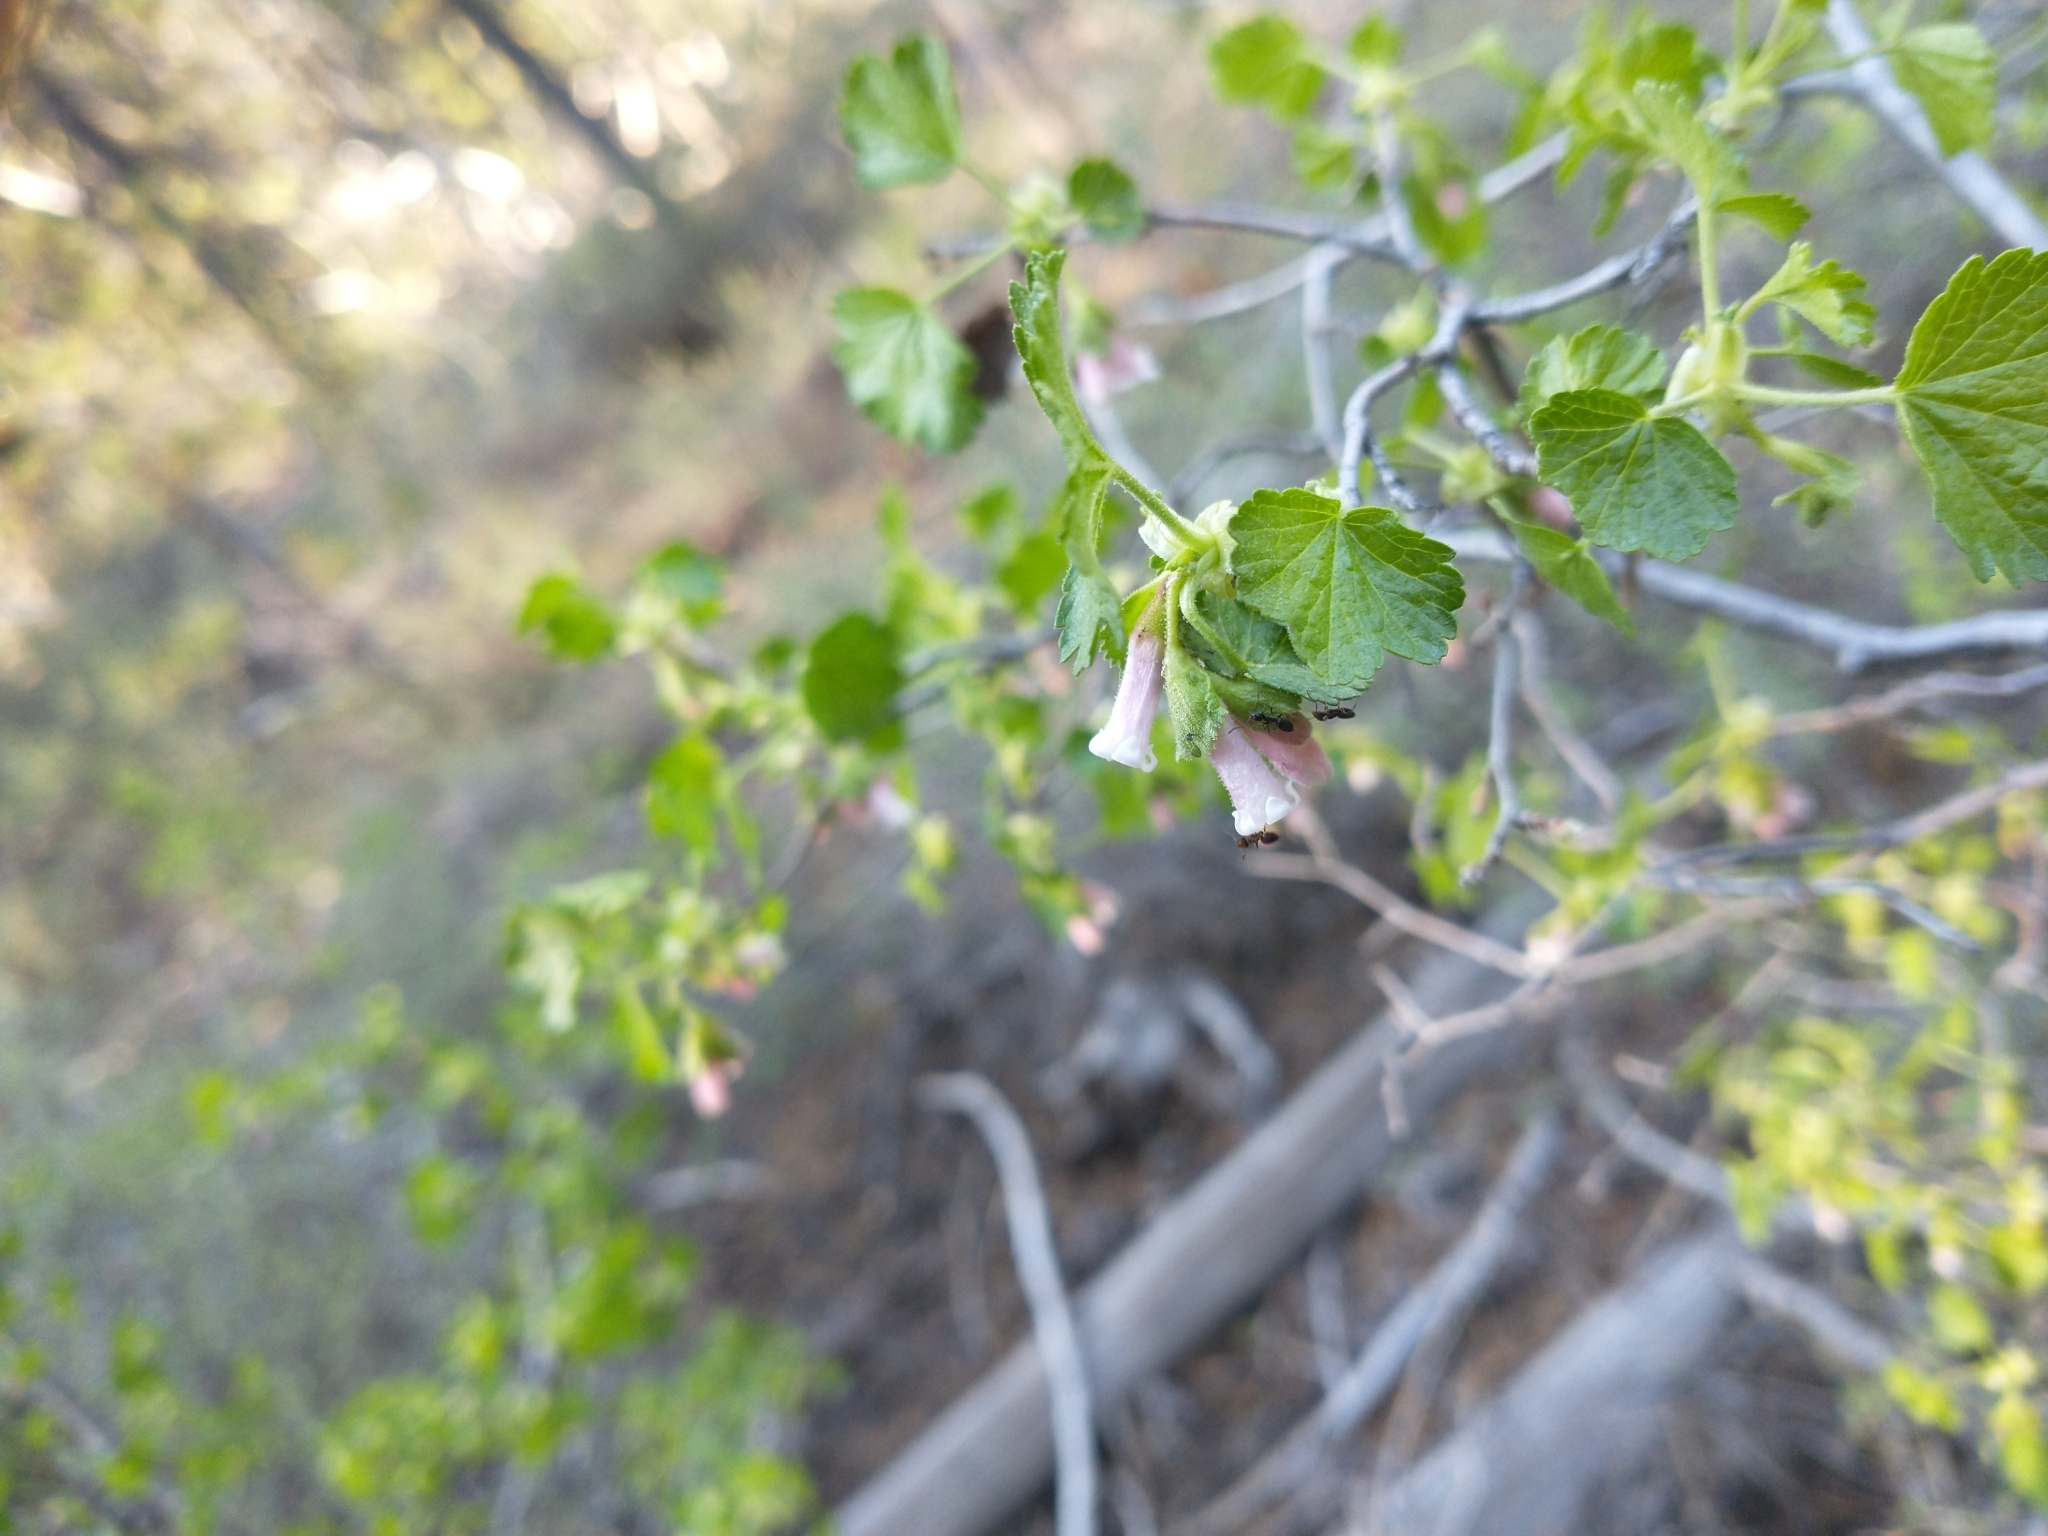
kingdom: Plantae
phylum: Tracheophyta
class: Magnoliopsida
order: Saxifragales
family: Grossulariaceae
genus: Ribes
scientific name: Ribes cereum
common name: Wax currant
